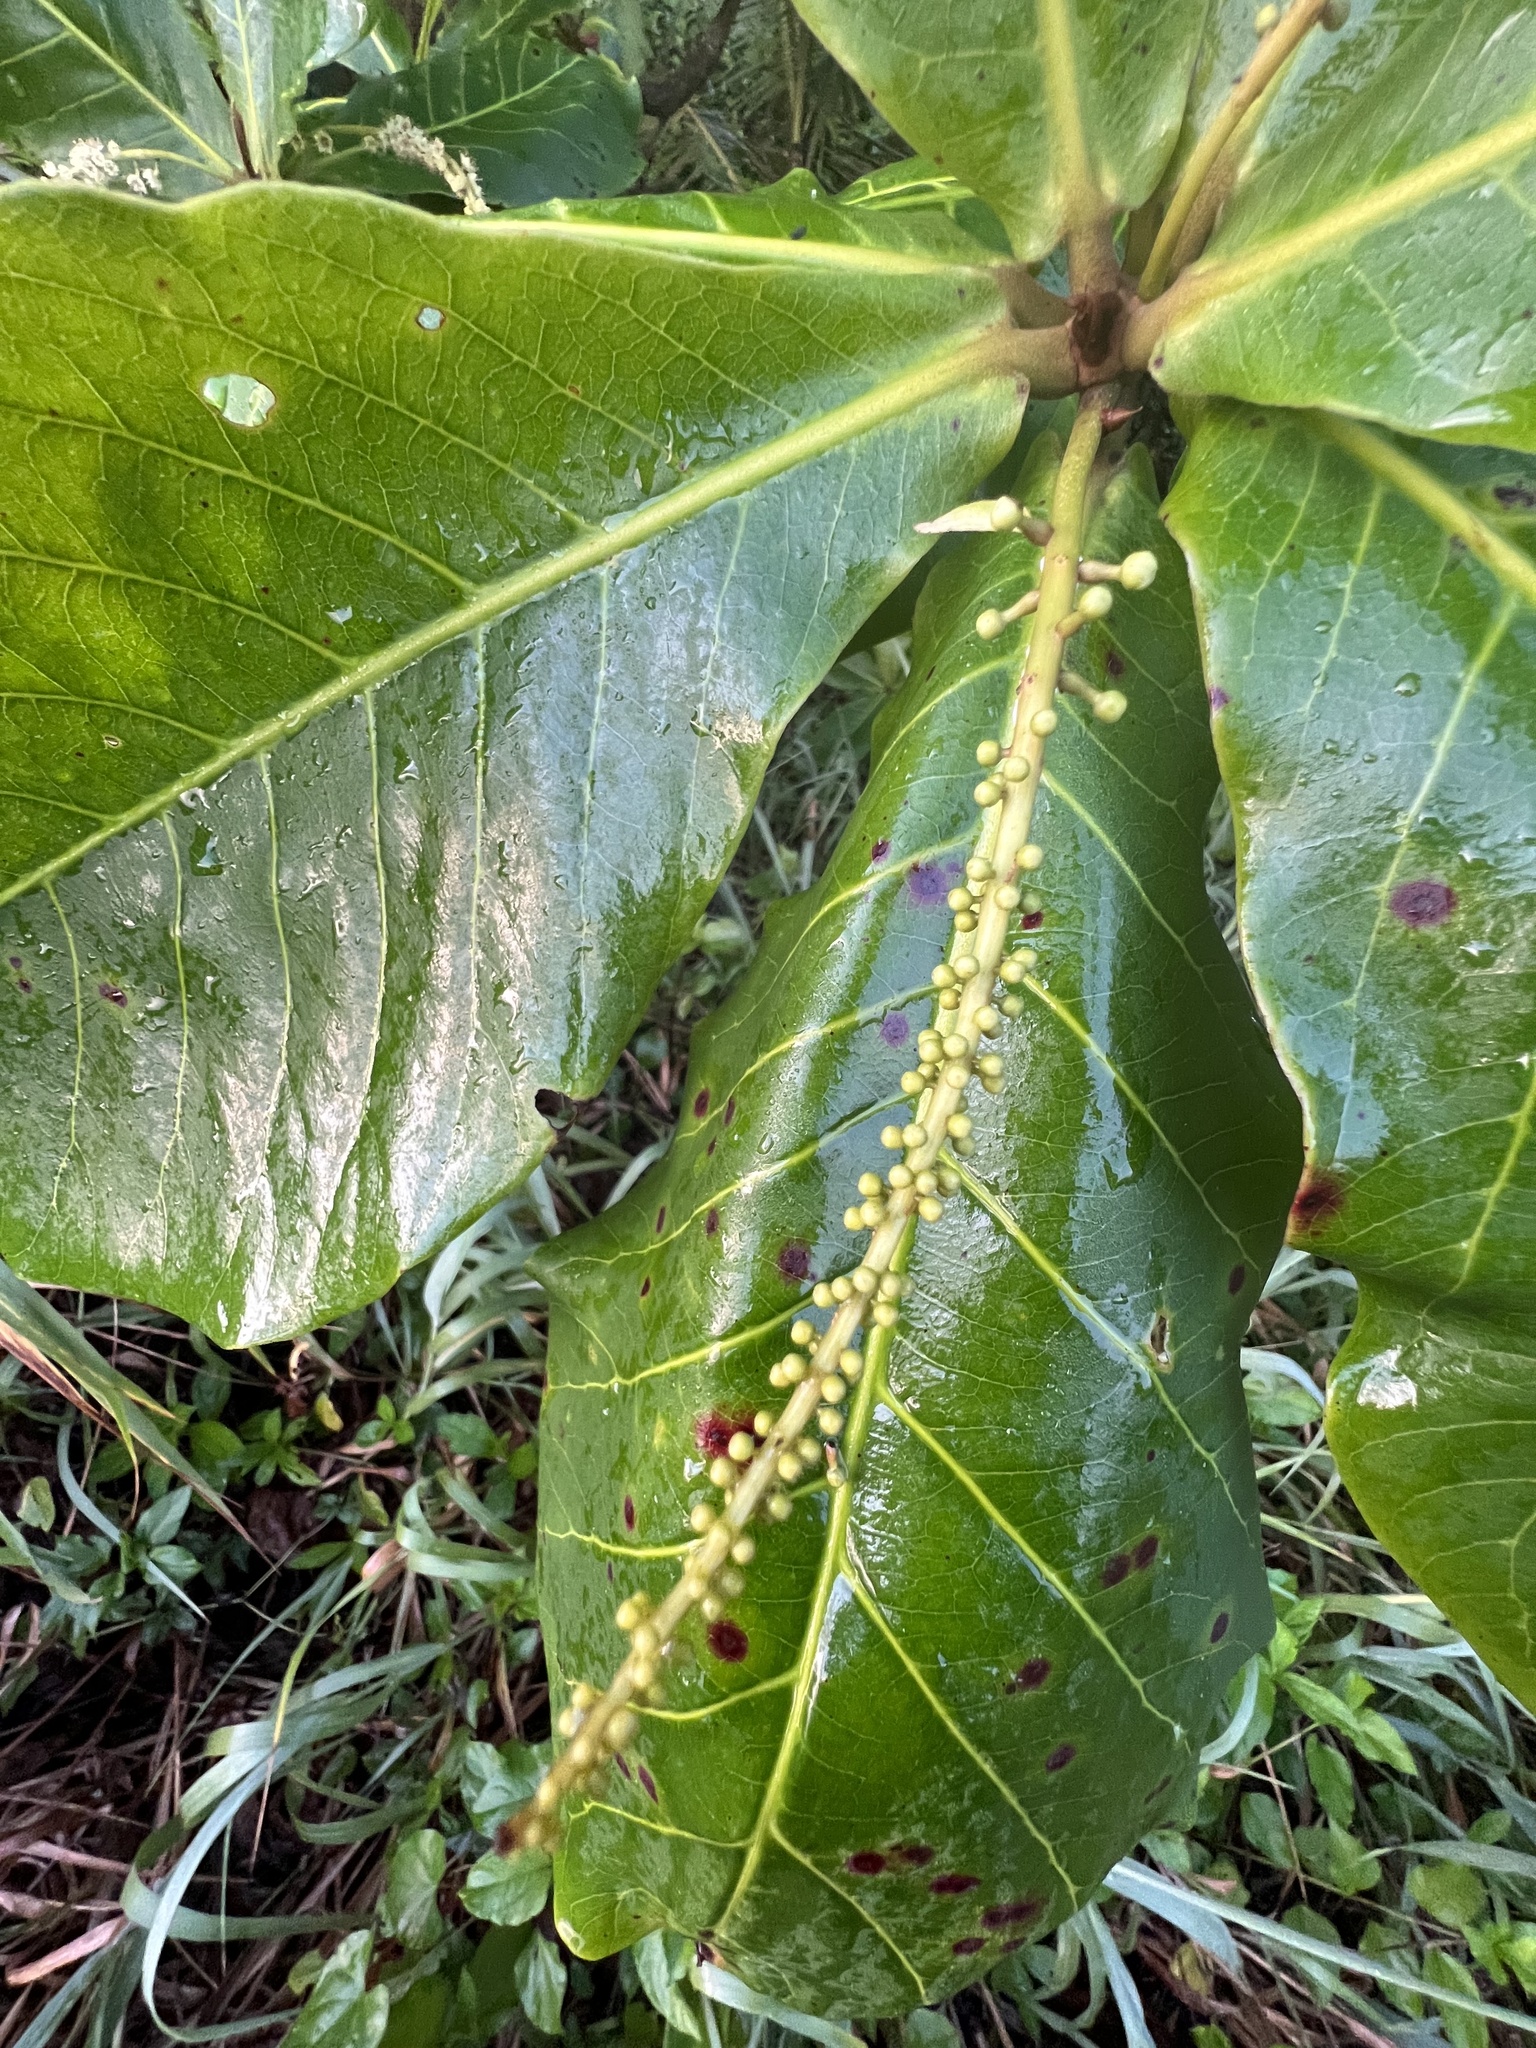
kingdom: Plantae
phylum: Tracheophyta
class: Magnoliopsida
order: Myrtales
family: Combretaceae
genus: Terminalia
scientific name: Terminalia catappa
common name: Tropical almond
